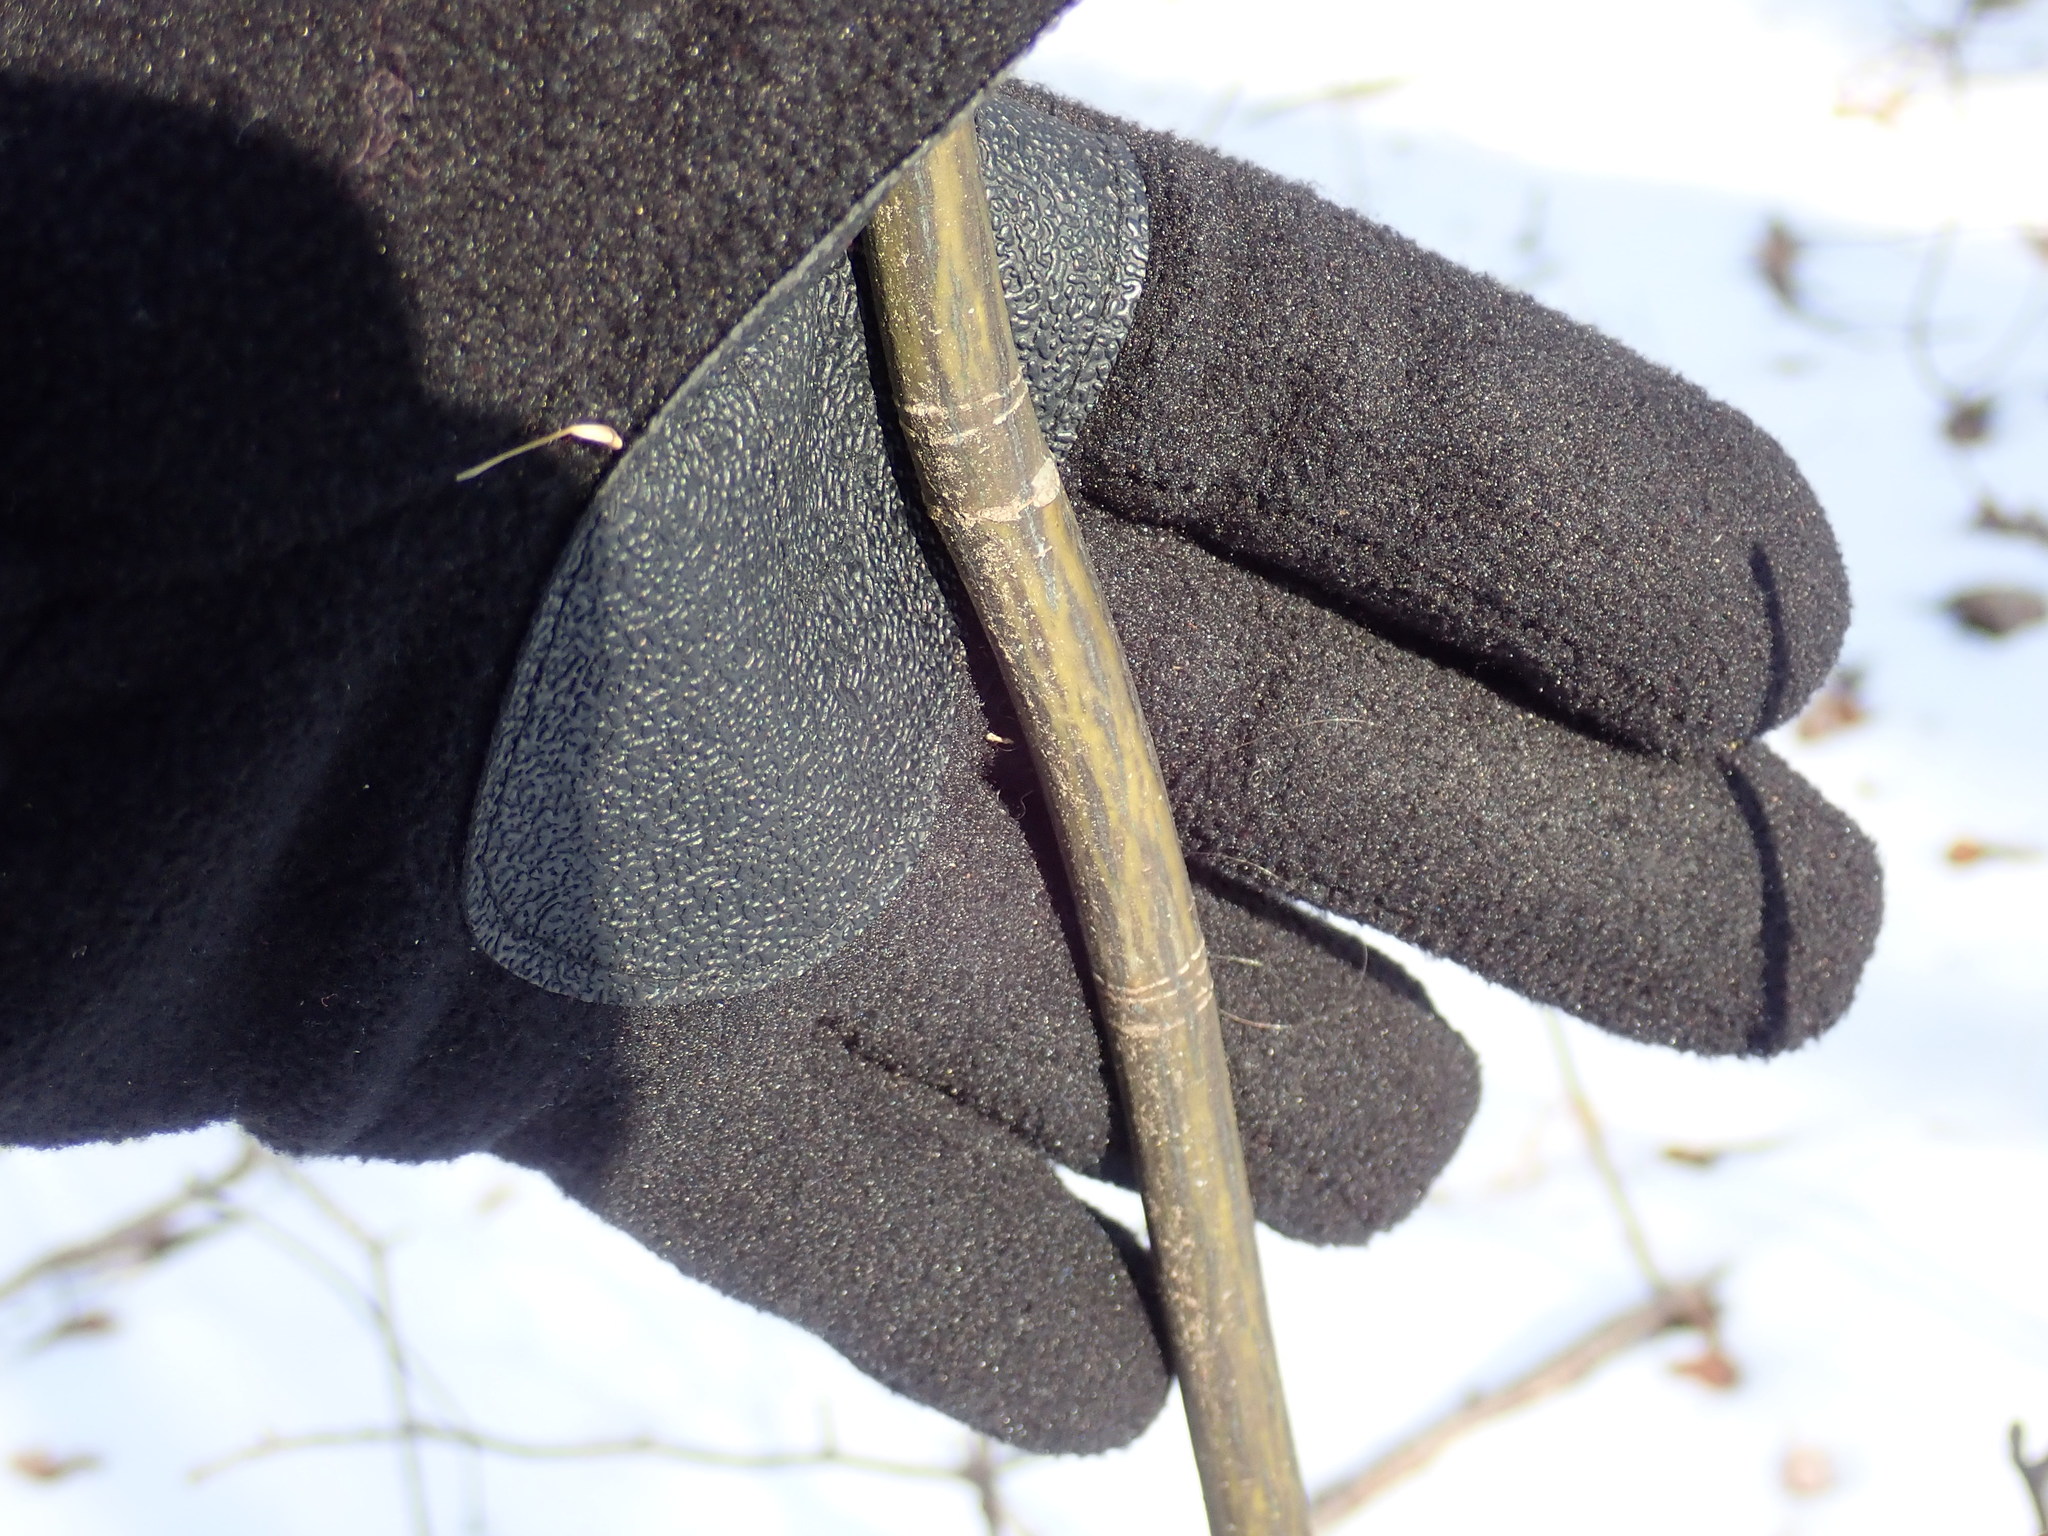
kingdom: Plantae
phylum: Tracheophyta
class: Magnoliopsida
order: Sapindales
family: Sapindaceae
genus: Acer
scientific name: Acer pensylvanicum
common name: Moosewood
